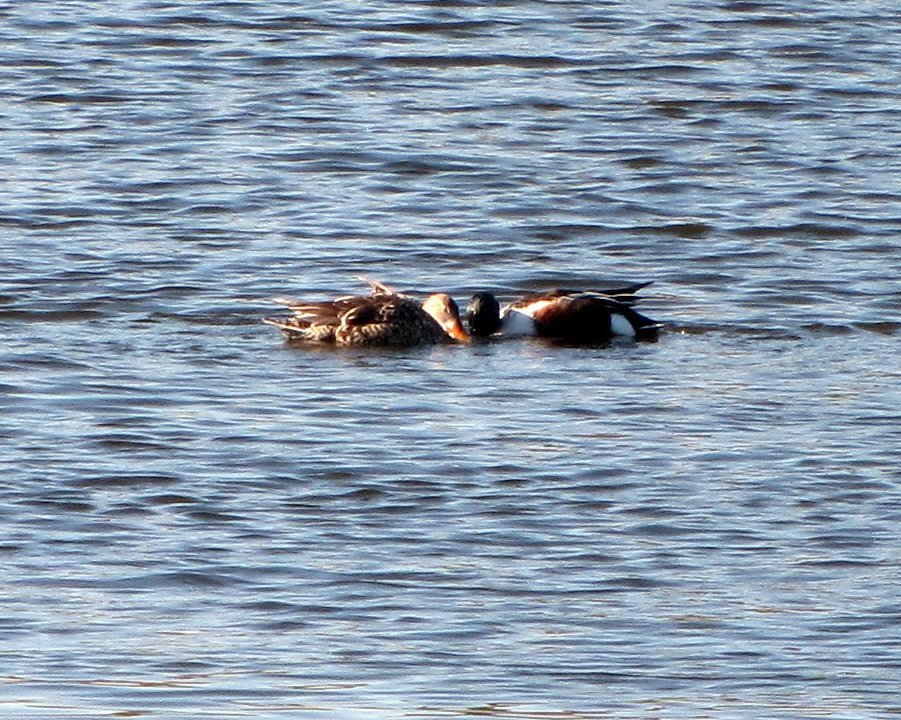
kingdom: Animalia
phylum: Chordata
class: Aves
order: Anseriformes
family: Anatidae
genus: Spatula
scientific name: Spatula clypeata
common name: Northern shoveler
